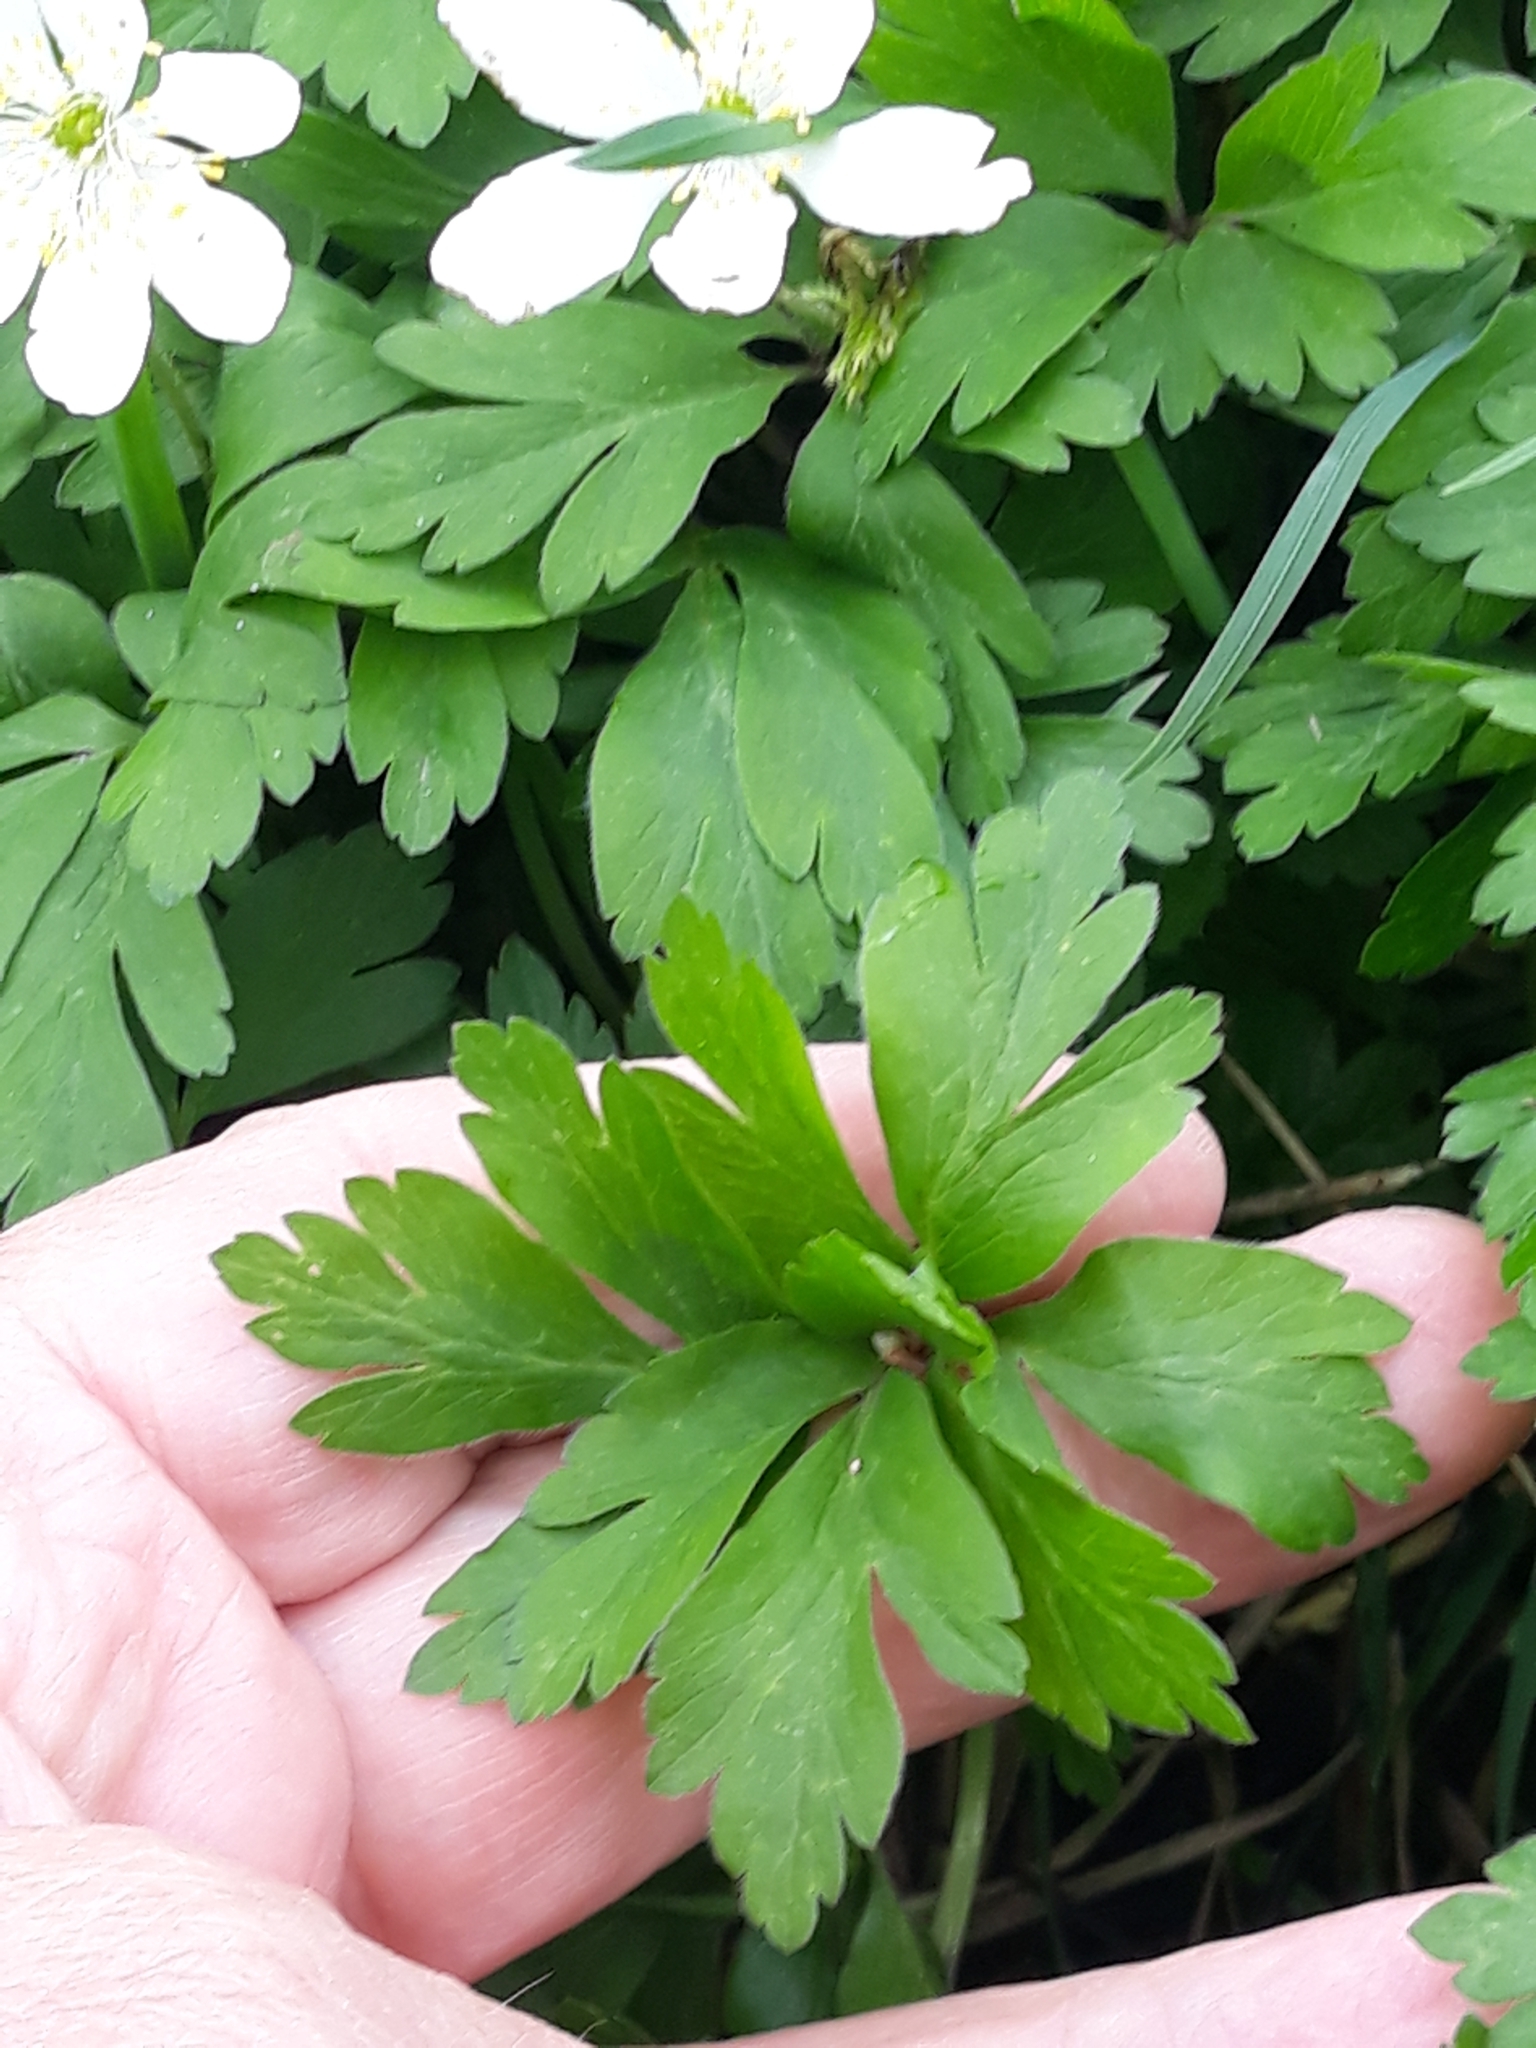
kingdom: Plantae
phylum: Tracheophyta
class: Magnoliopsida
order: Ranunculales
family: Ranunculaceae
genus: Anemone
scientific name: Anemone nemorosa
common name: Wood anemone
